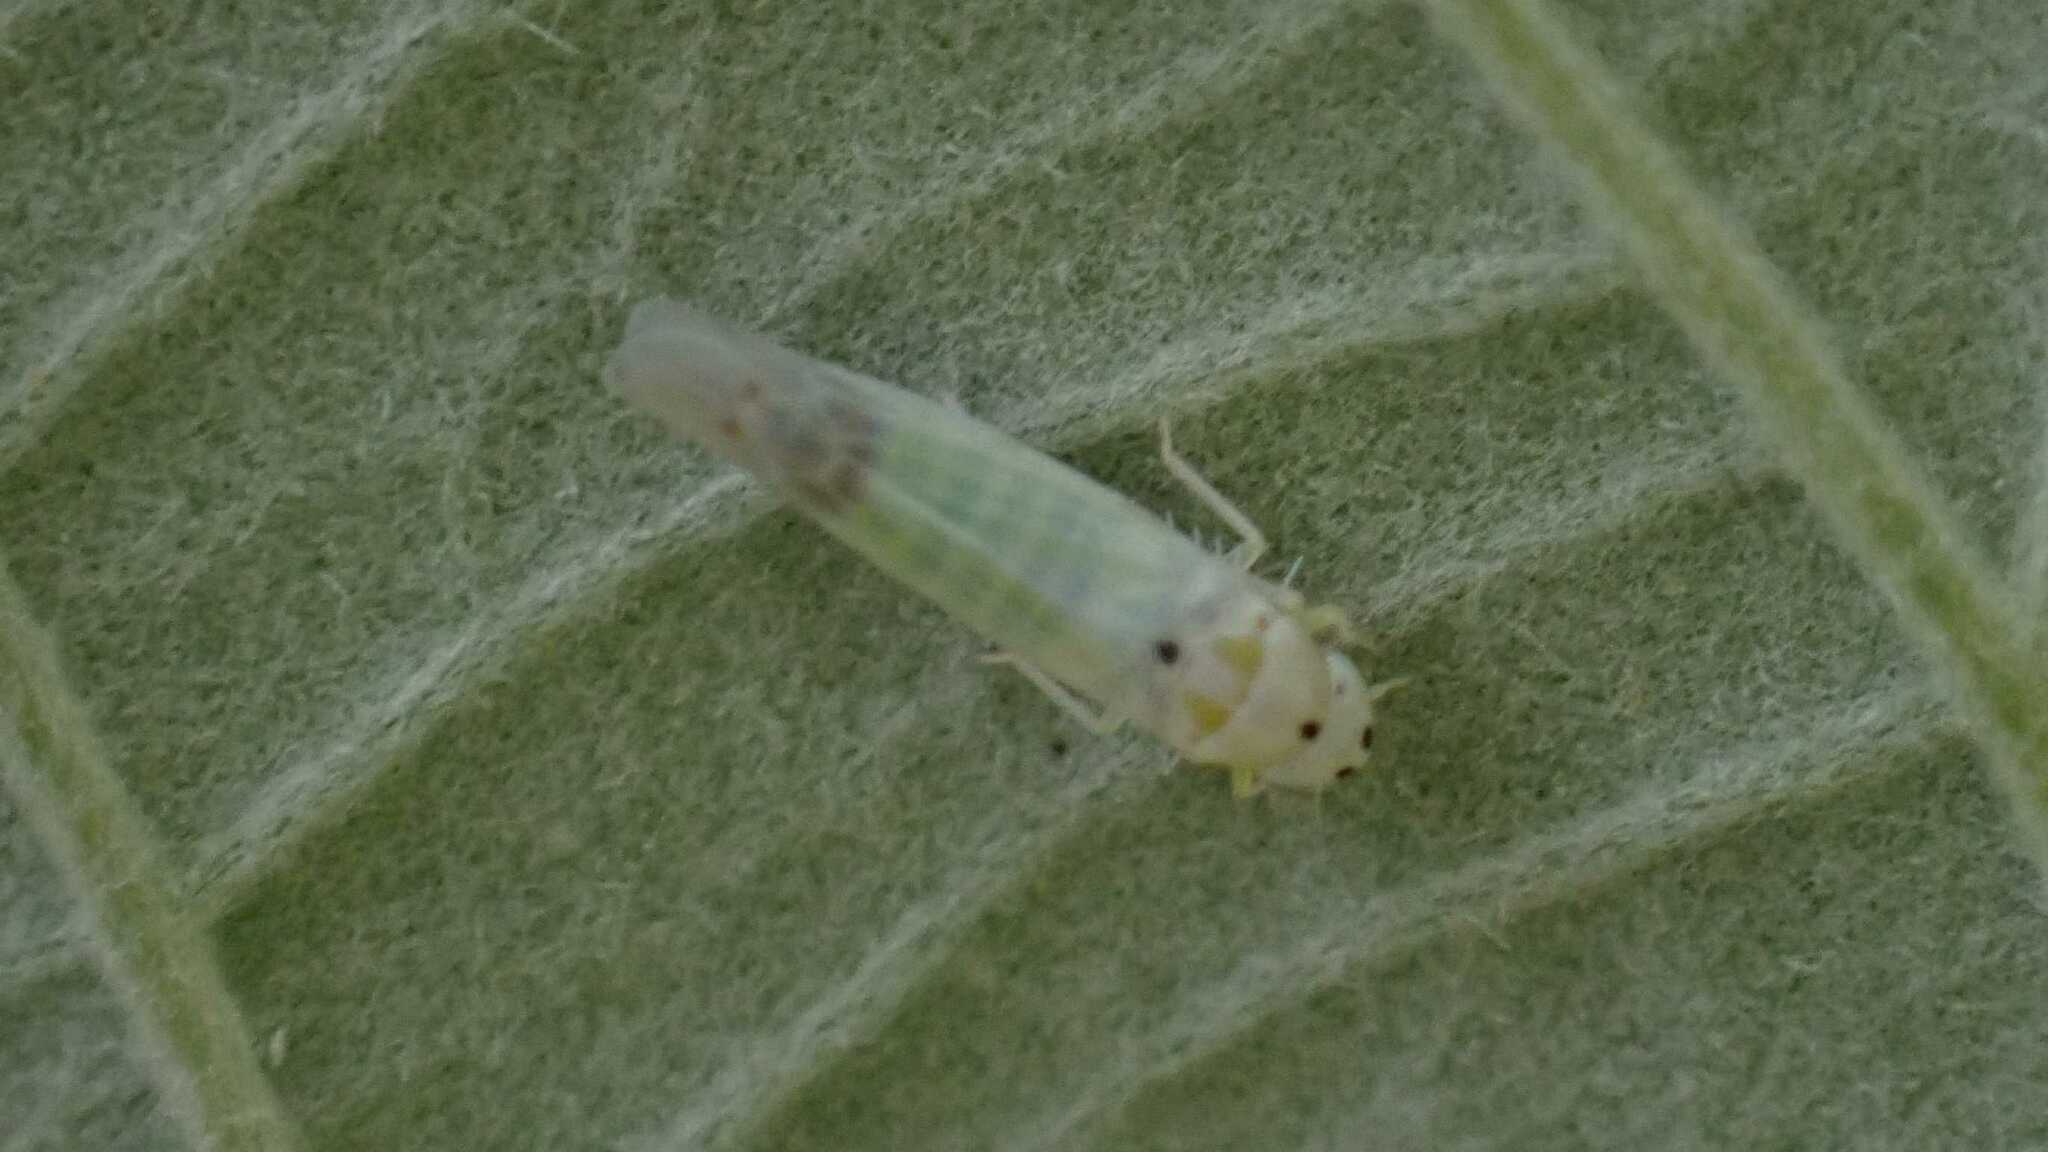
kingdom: Animalia
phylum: Arthropoda
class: Insecta
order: Hemiptera
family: Cicadellidae
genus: Ribautiana
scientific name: Ribautiana debilis
